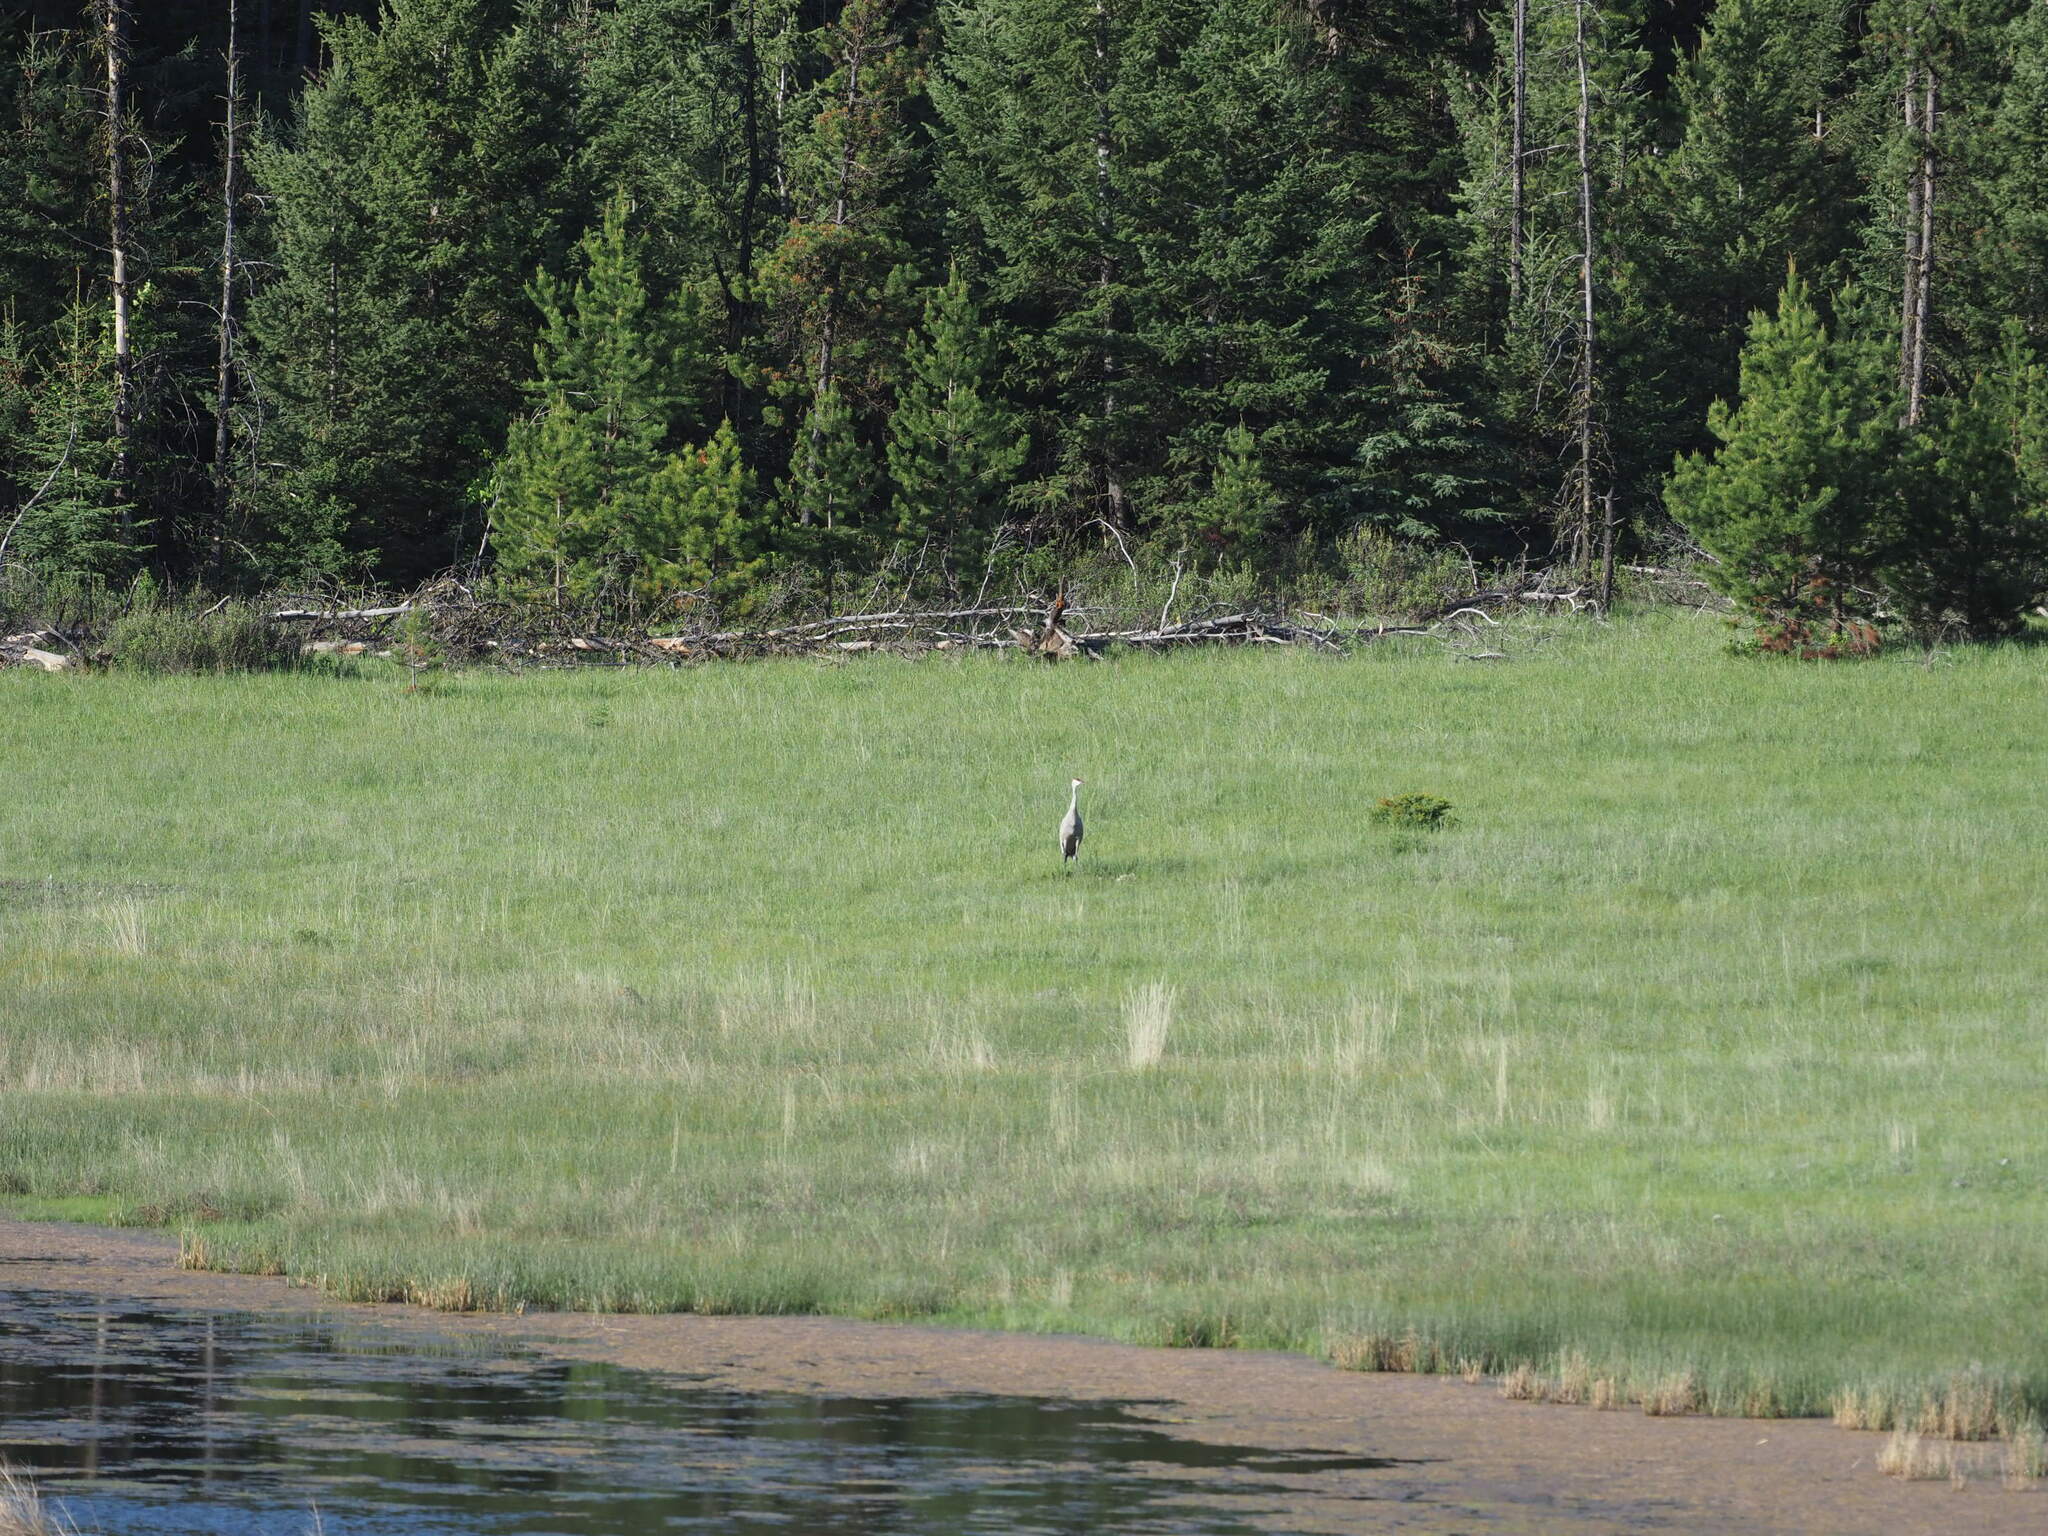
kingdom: Animalia
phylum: Chordata
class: Aves
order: Gruiformes
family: Gruidae
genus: Grus
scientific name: Grus canadensis
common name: Sandhill crane
